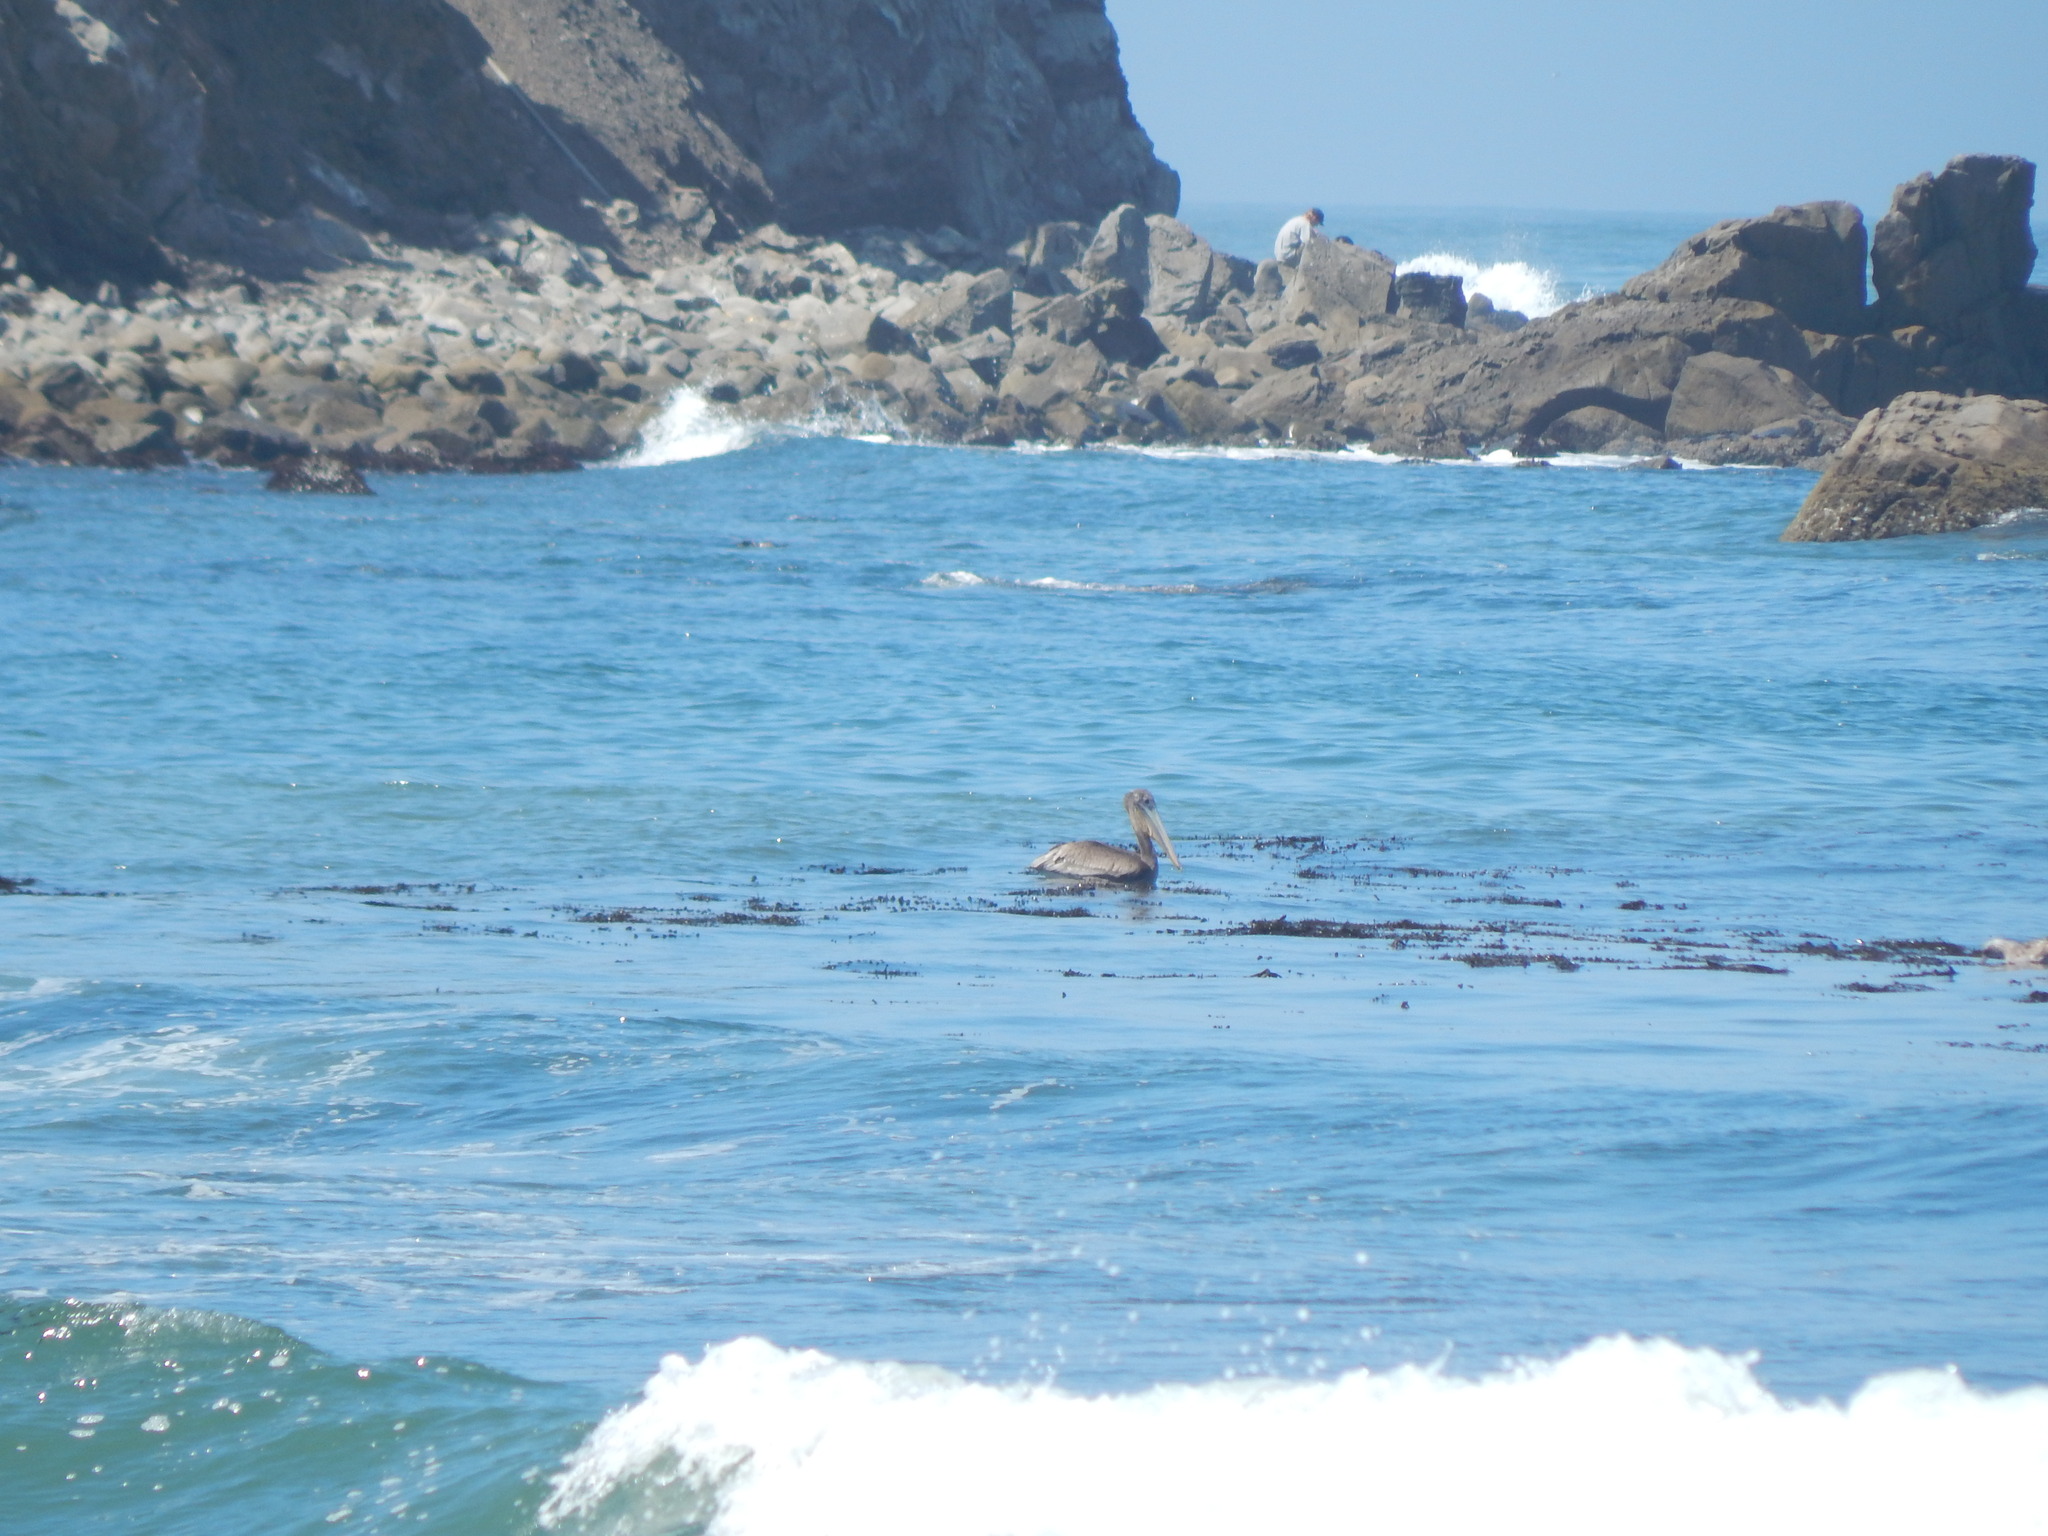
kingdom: Animalia
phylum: Chordata
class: Aves
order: Pelecaniformes
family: Pelecanidae
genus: Pelecanus
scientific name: Pelecanus occidentalis
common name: Brown pelican
